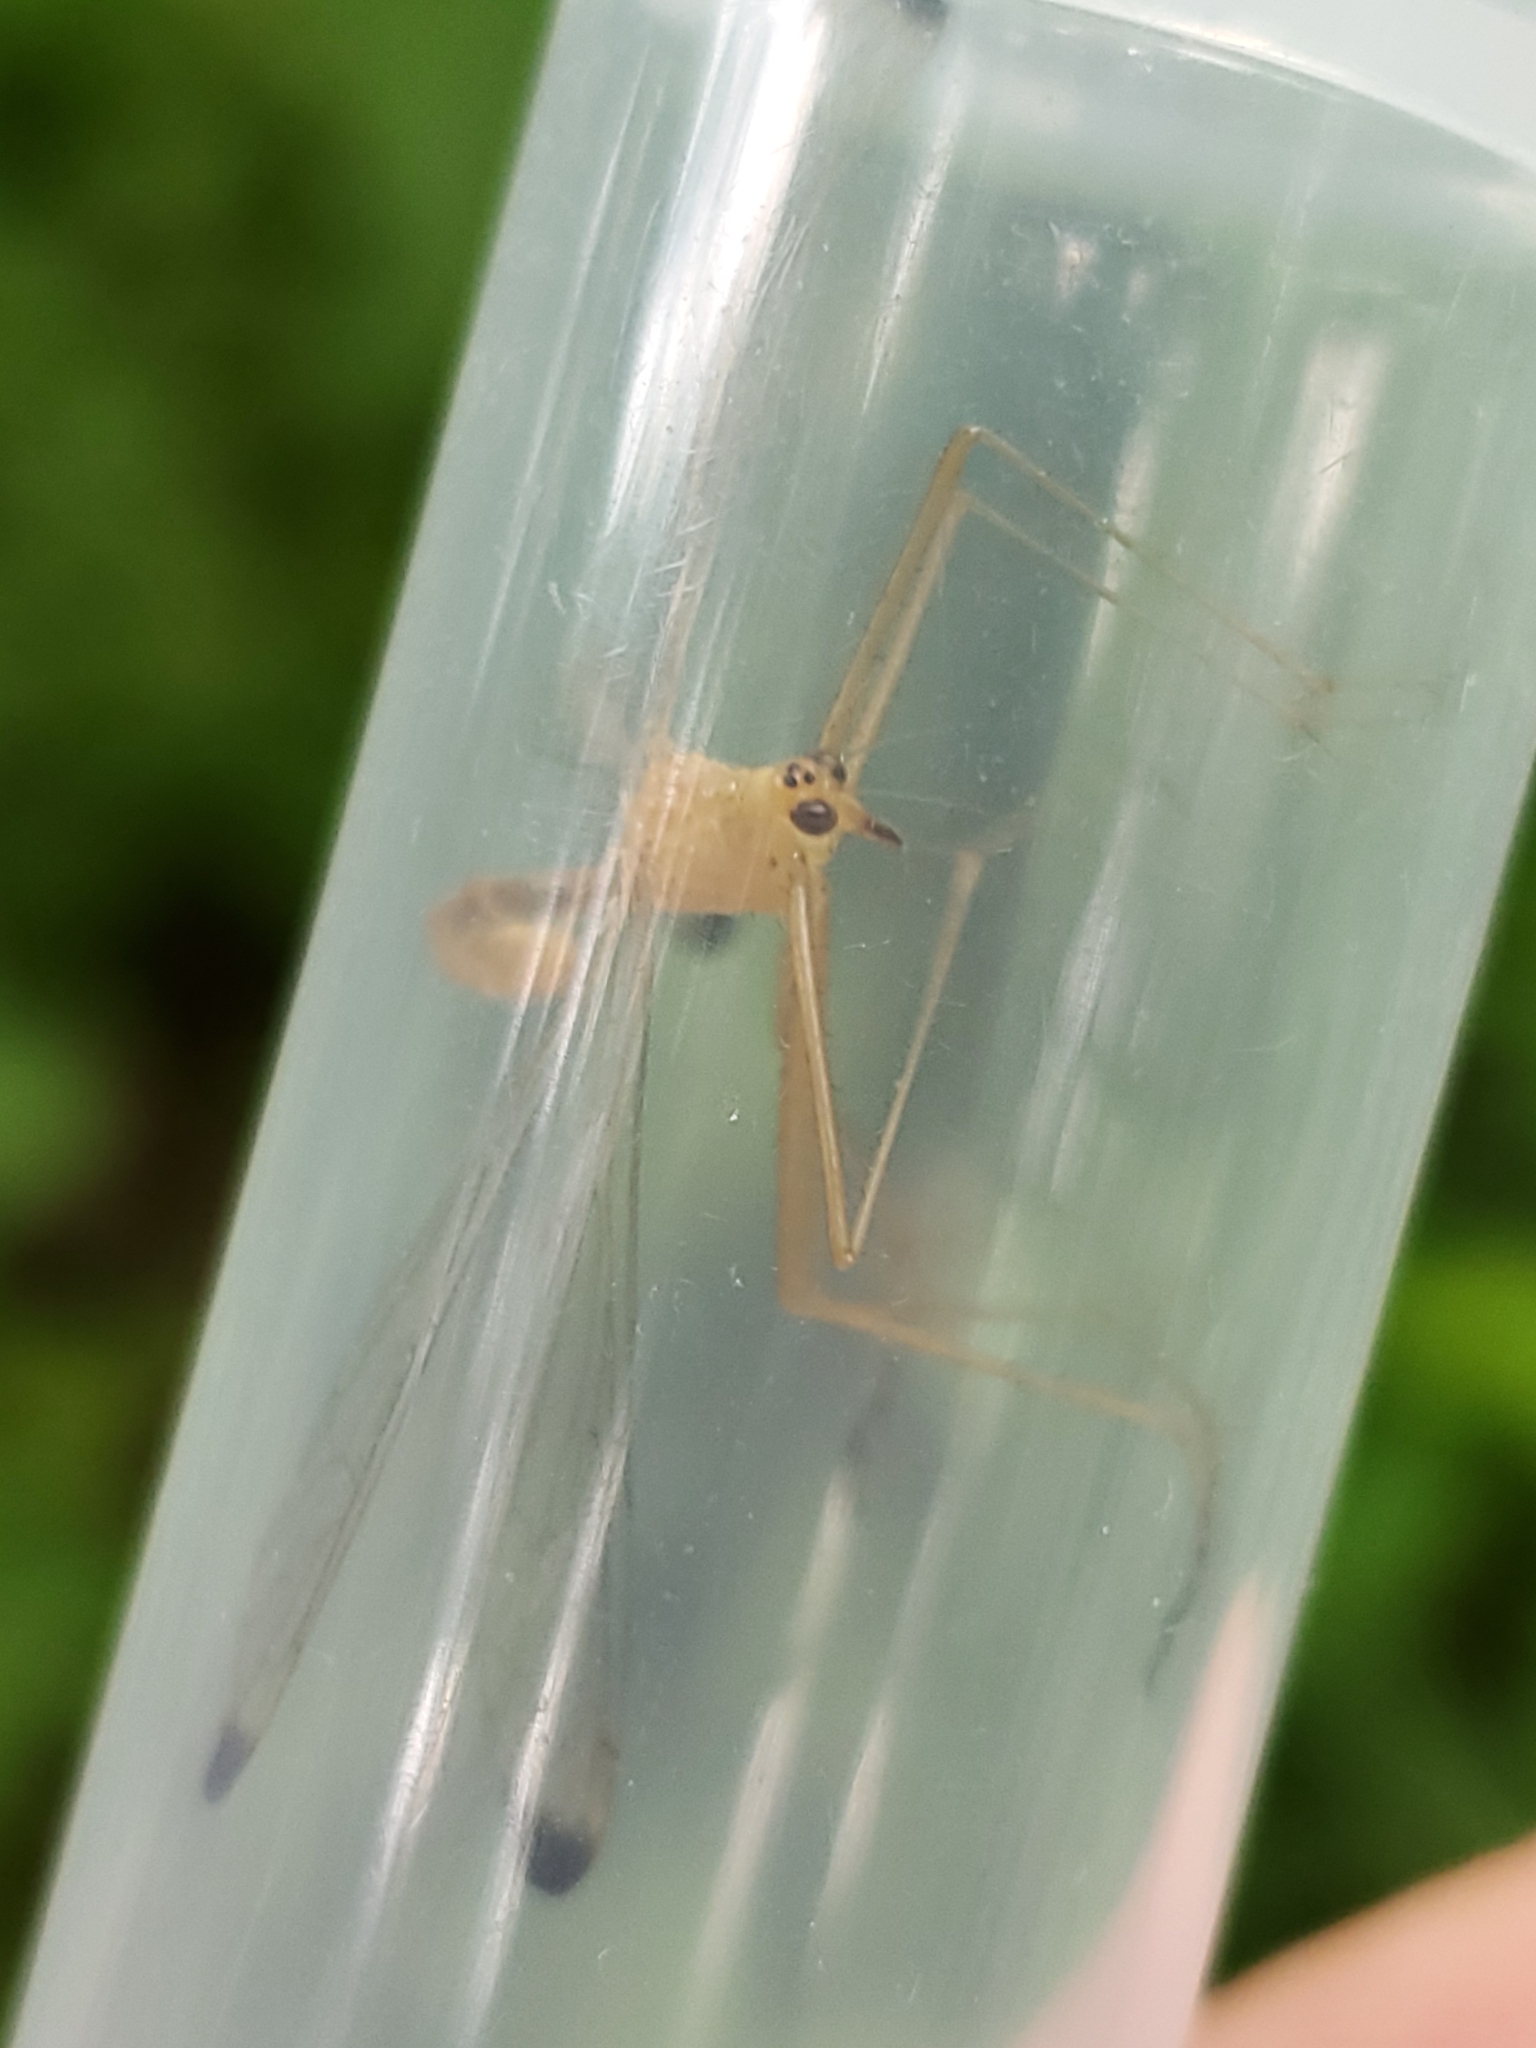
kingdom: Animalia
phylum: Arthropoda
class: Insecta
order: Mecoptera
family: Bittacidae
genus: Hylobittacus
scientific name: Hylobittacus apicalis
